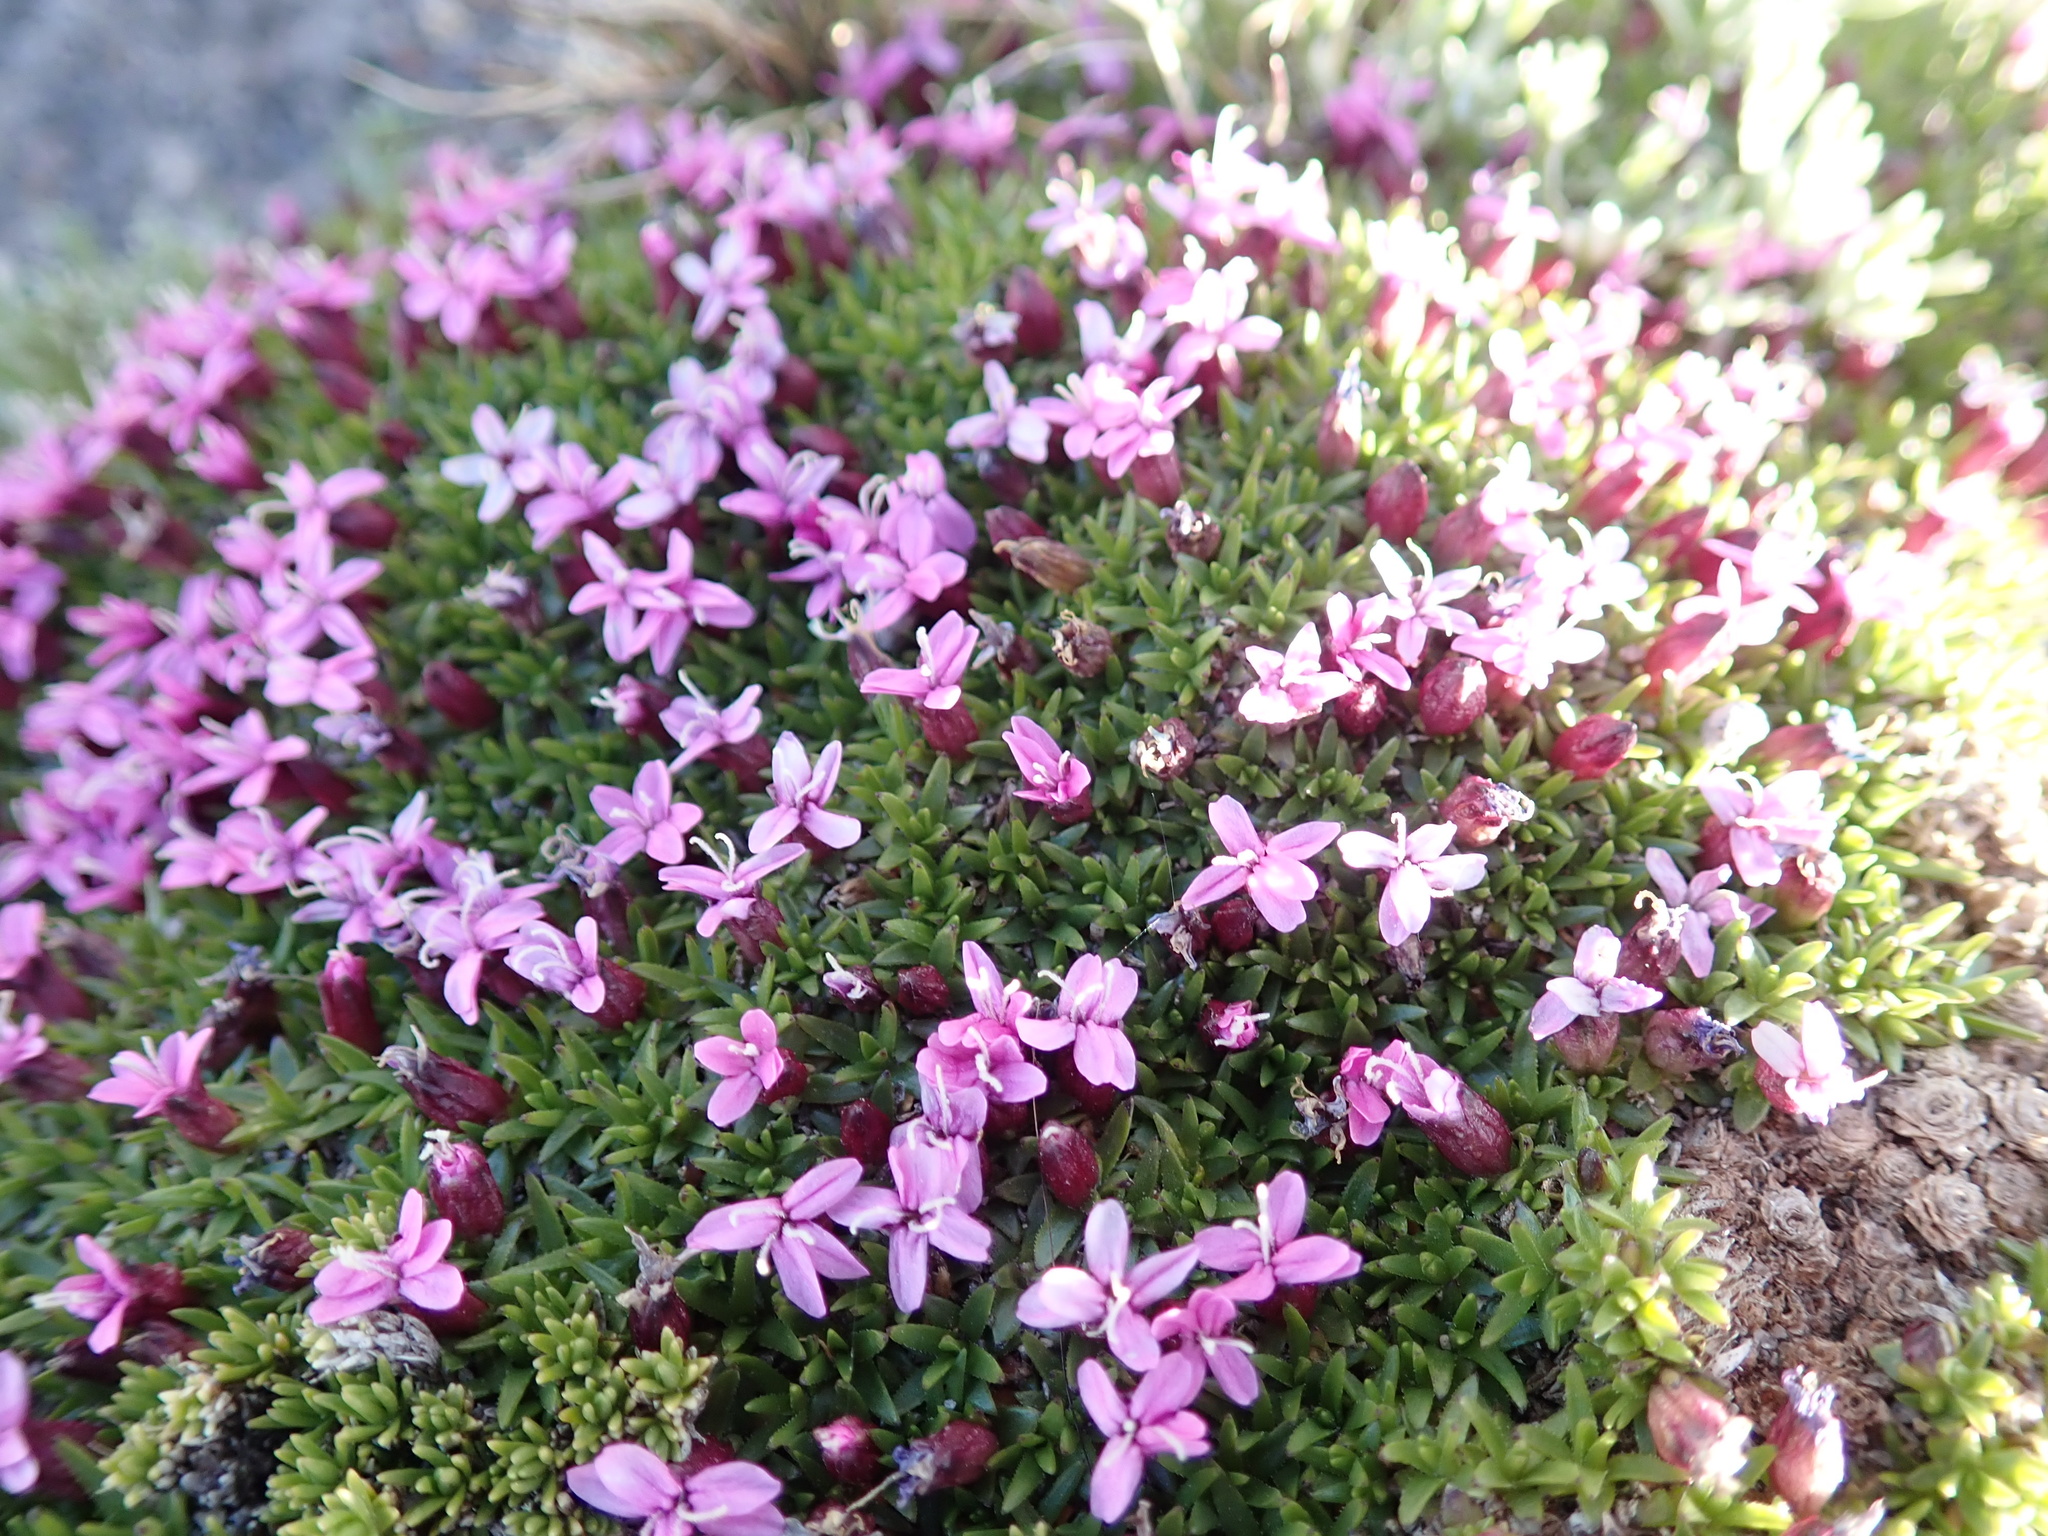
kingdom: Plantae
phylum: Tracheophyta
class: Magnoliopsida
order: Caryophyllales
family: Caryophyllaceae
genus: Silene
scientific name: Silene acaulis
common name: Moss campion
